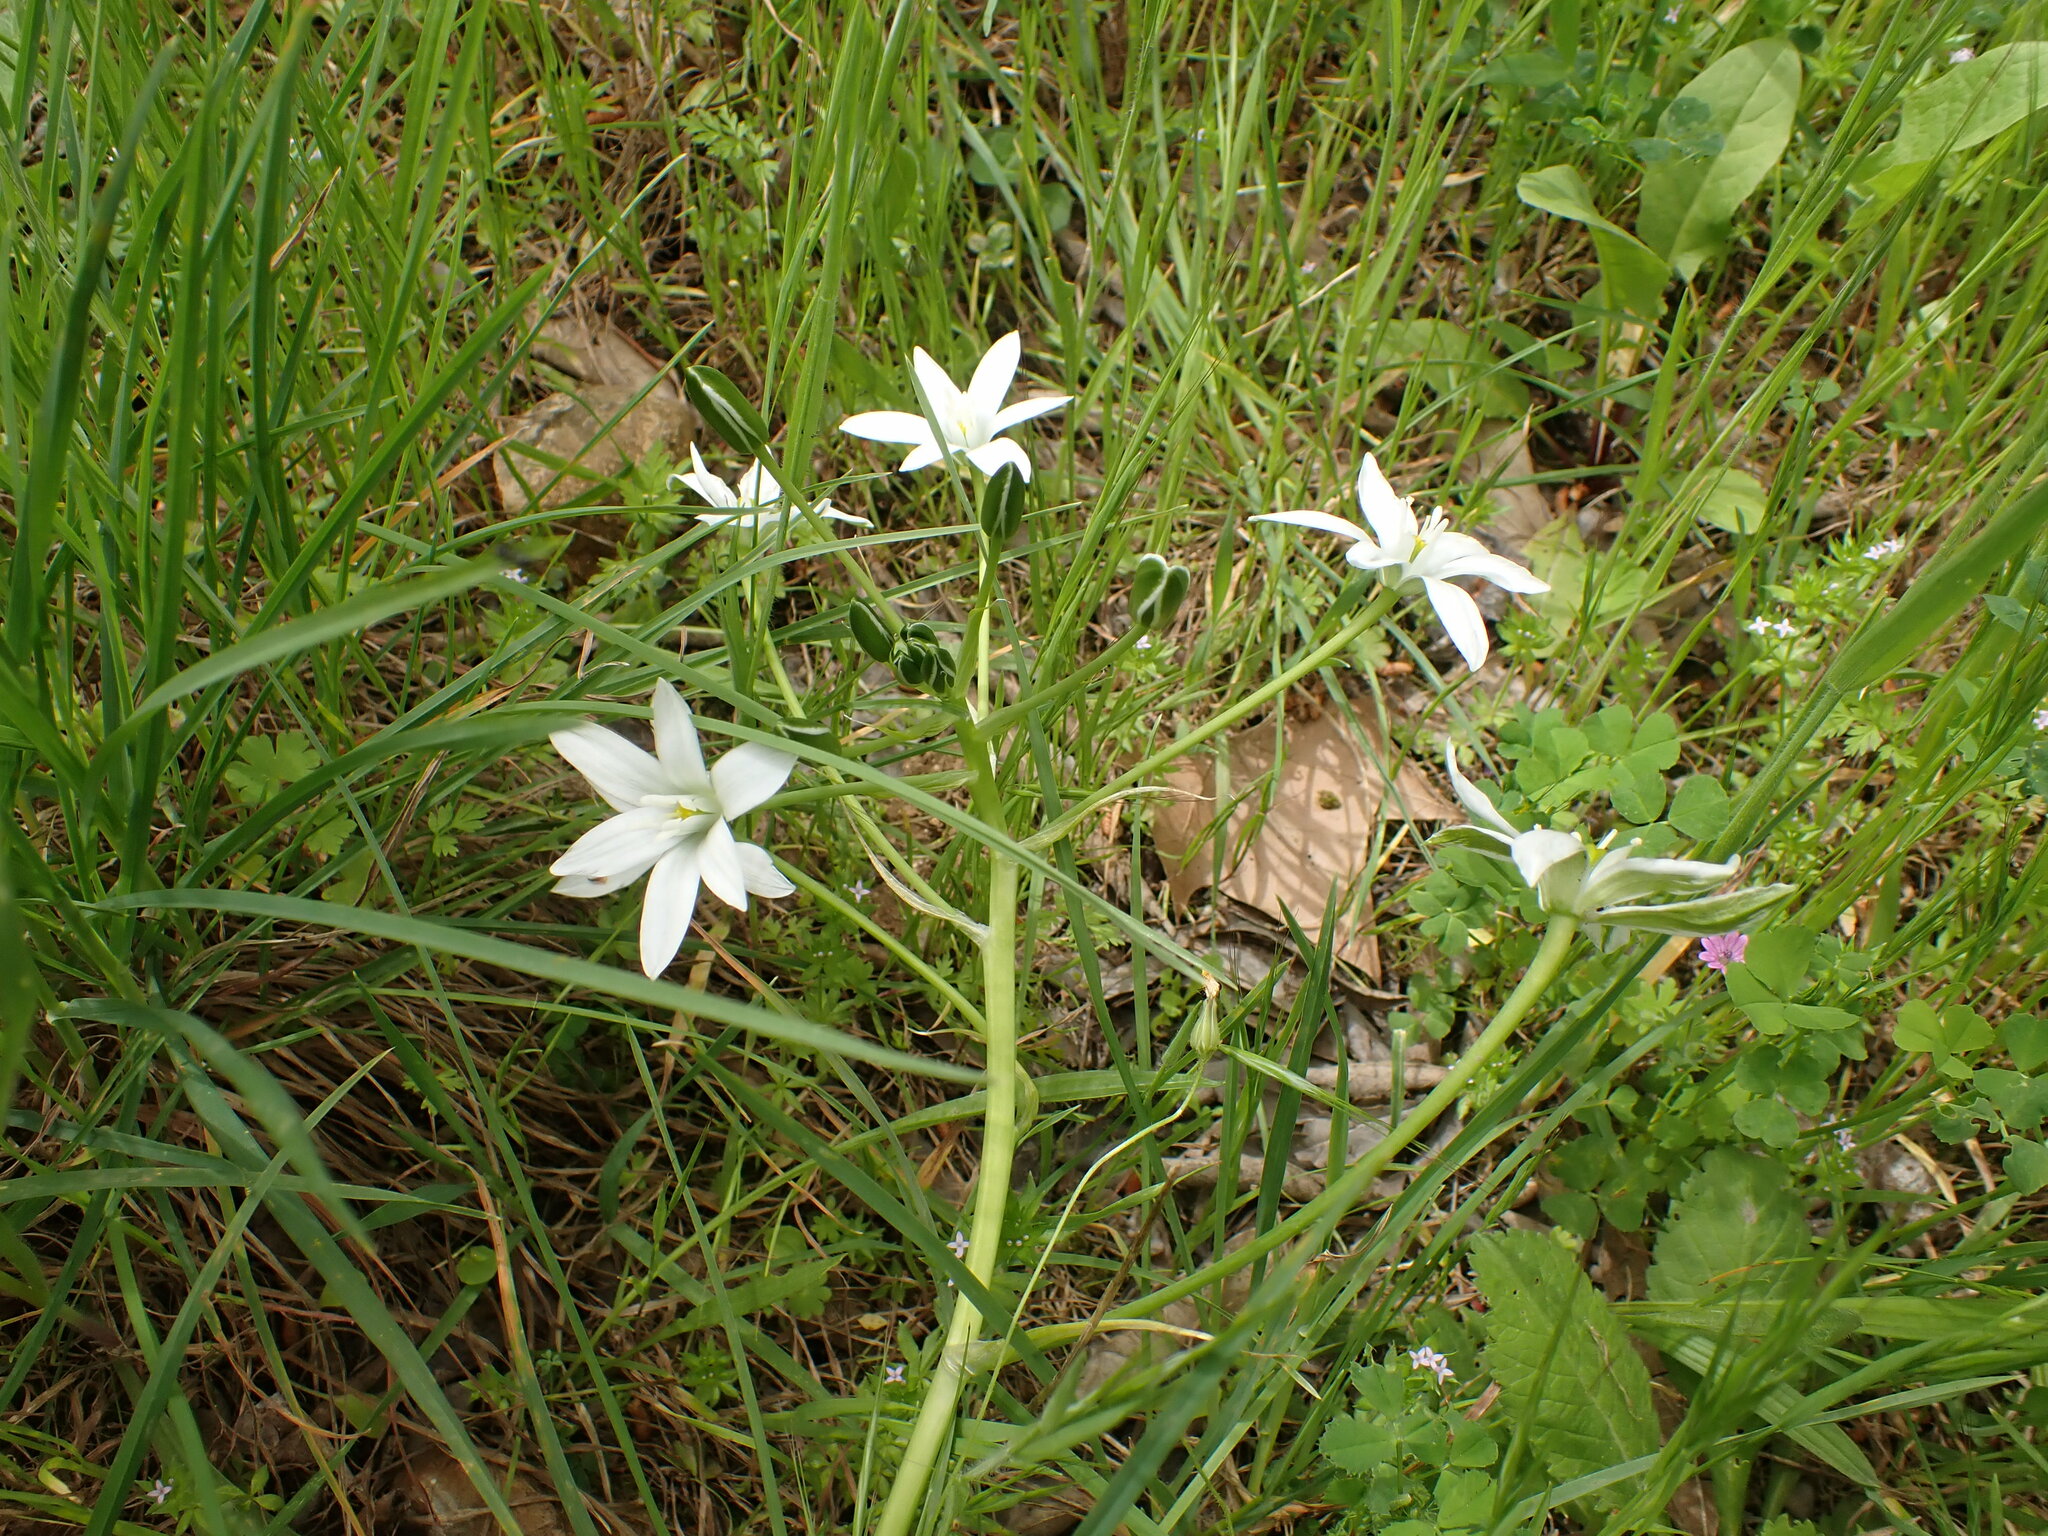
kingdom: Plantae
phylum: Tracheophyta
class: Liliopsida
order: Asparagales
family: Asparagaceae
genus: Ornithogalum
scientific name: Ornithogalum divergens
